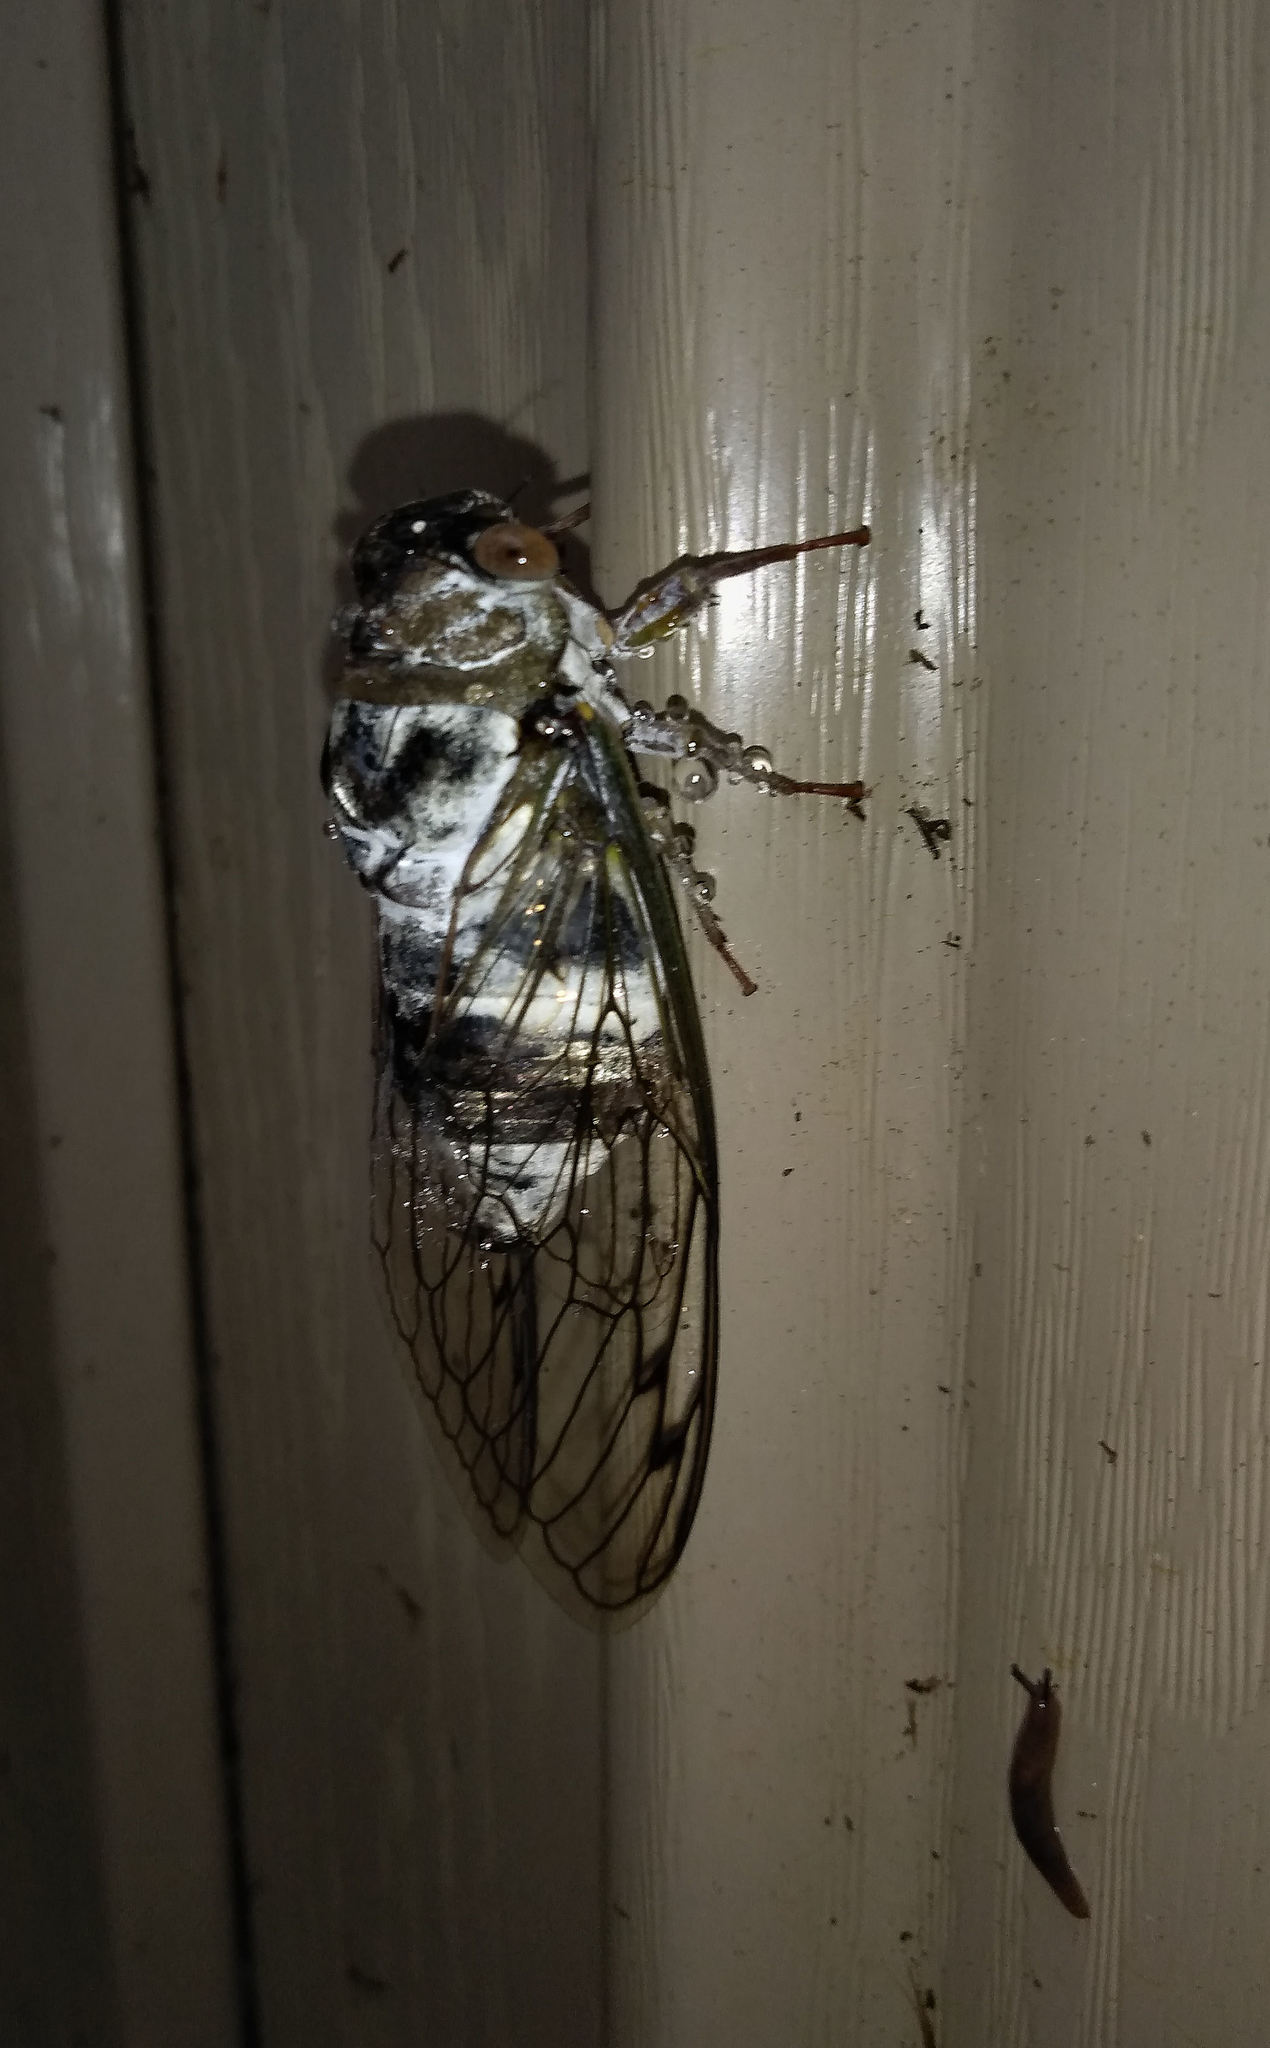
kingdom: Animalia
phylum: Arthropoda
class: Insecta
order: Hemiptera
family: Cicadidae
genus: Diceroprocta
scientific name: Diceroprocta grossa
